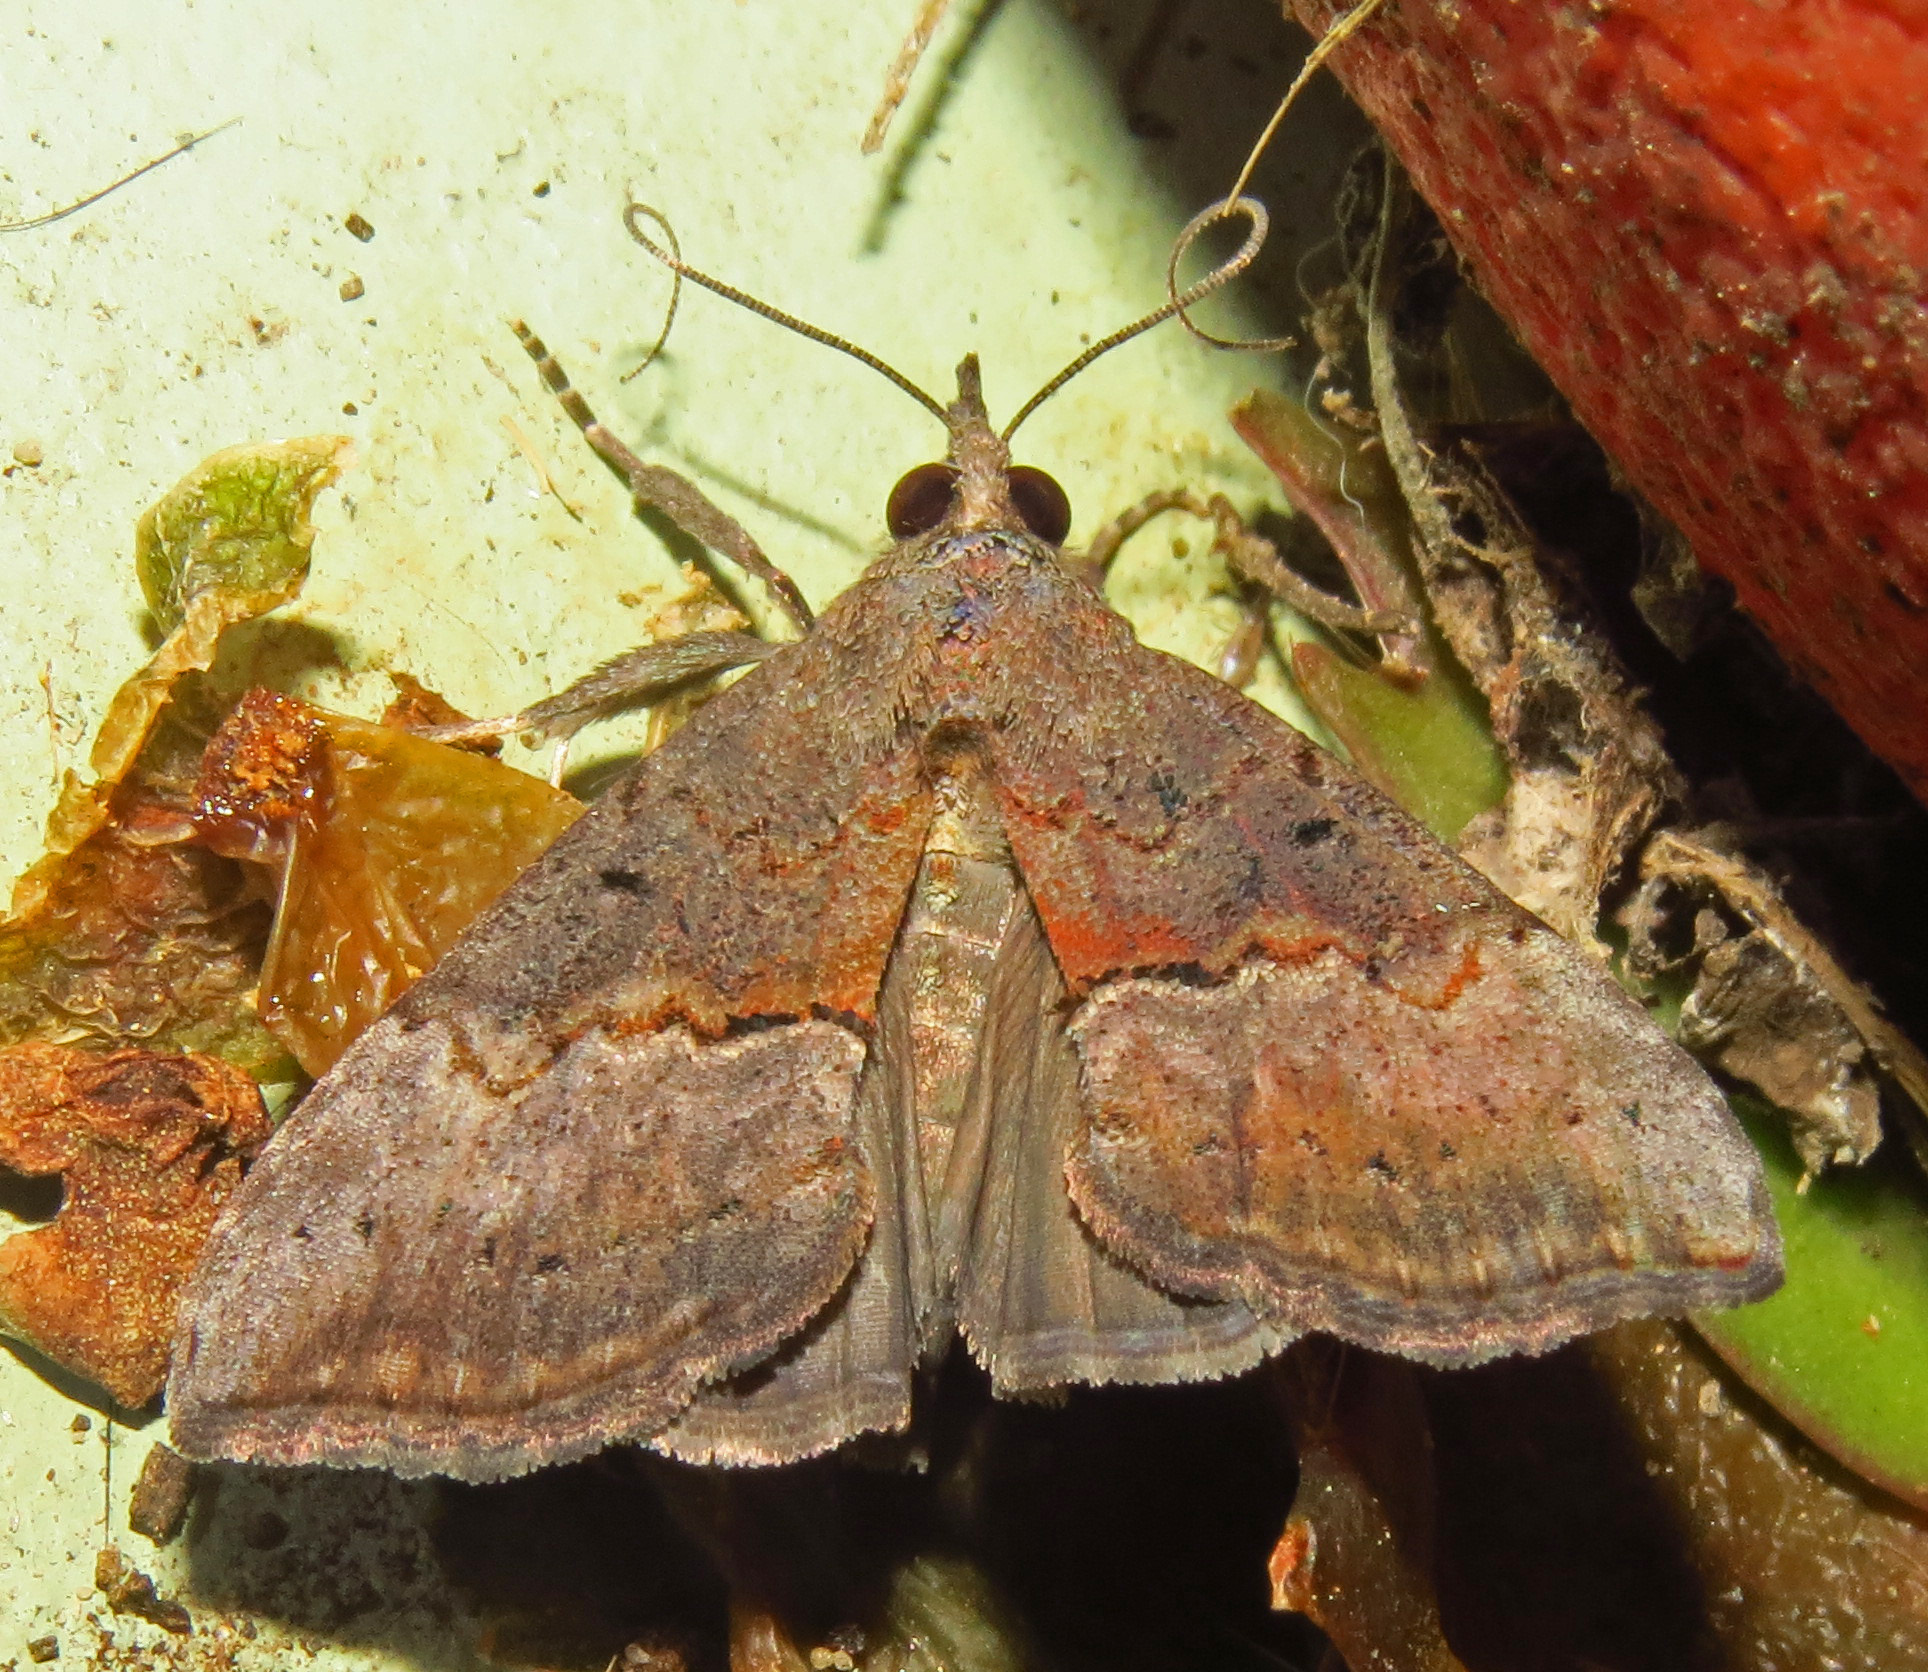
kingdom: Animalia
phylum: Arthropoda
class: Insecta
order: Lepidoptera
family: Erebidae
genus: Hypena
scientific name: Hypena scabra
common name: Green cloverworm
